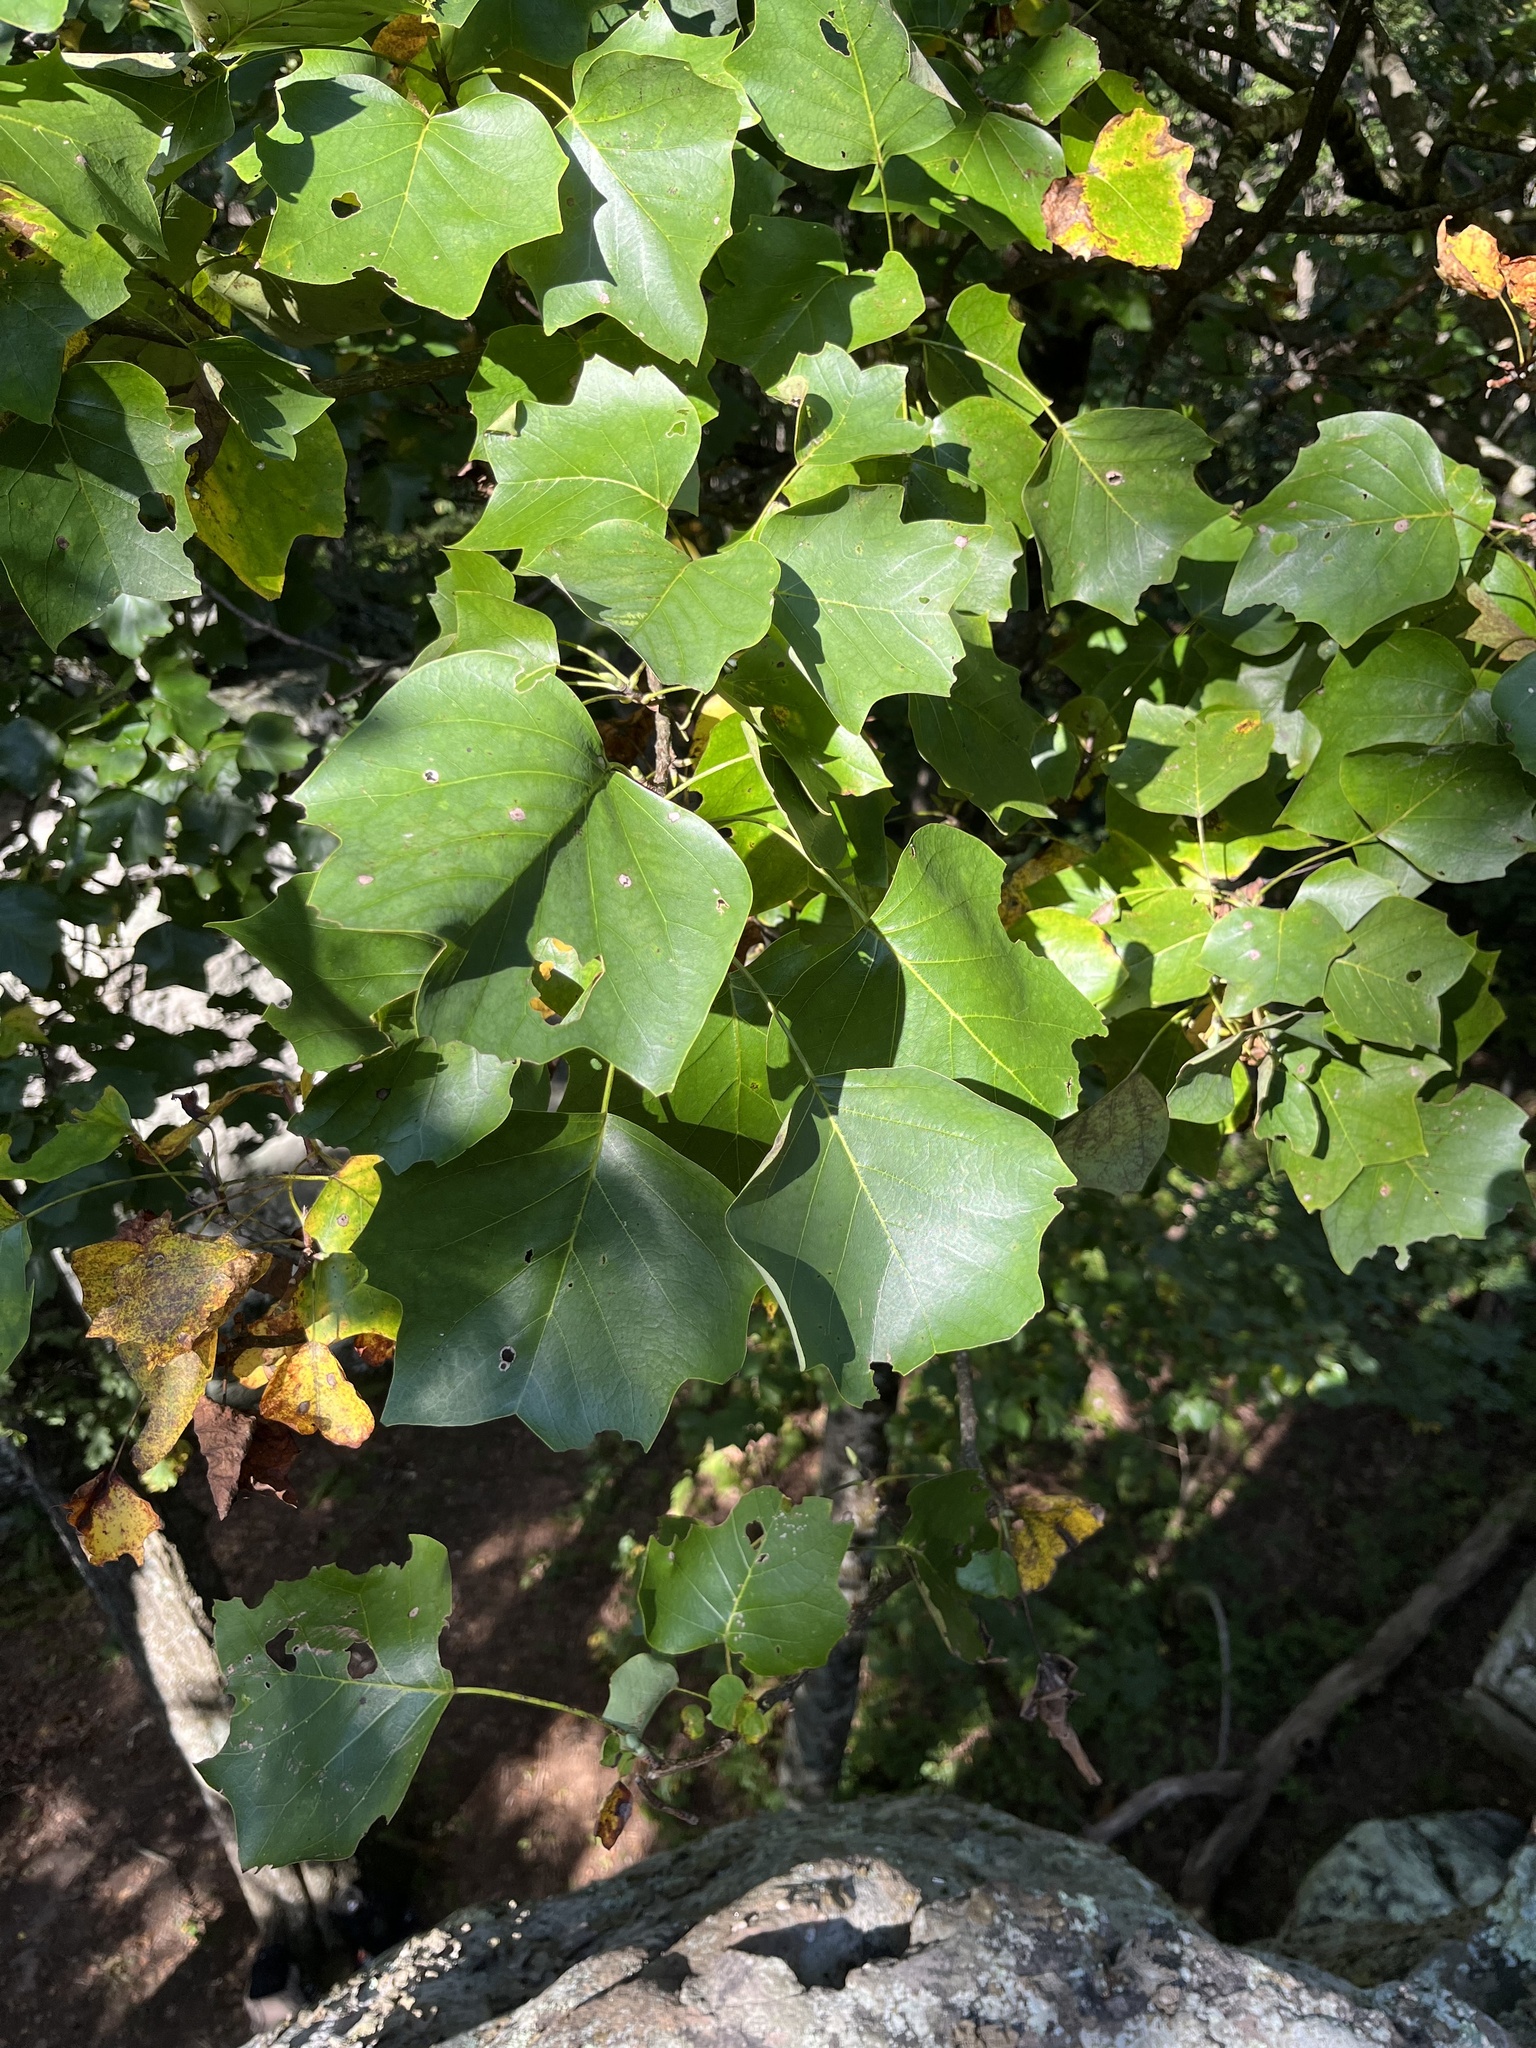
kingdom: Plantae
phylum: Tracheophyta
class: Magnoliopsida
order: Magnoliales
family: Magnoliaceae
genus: Liriodendron
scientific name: Liriodendron tulipifera
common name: Tulip tree
